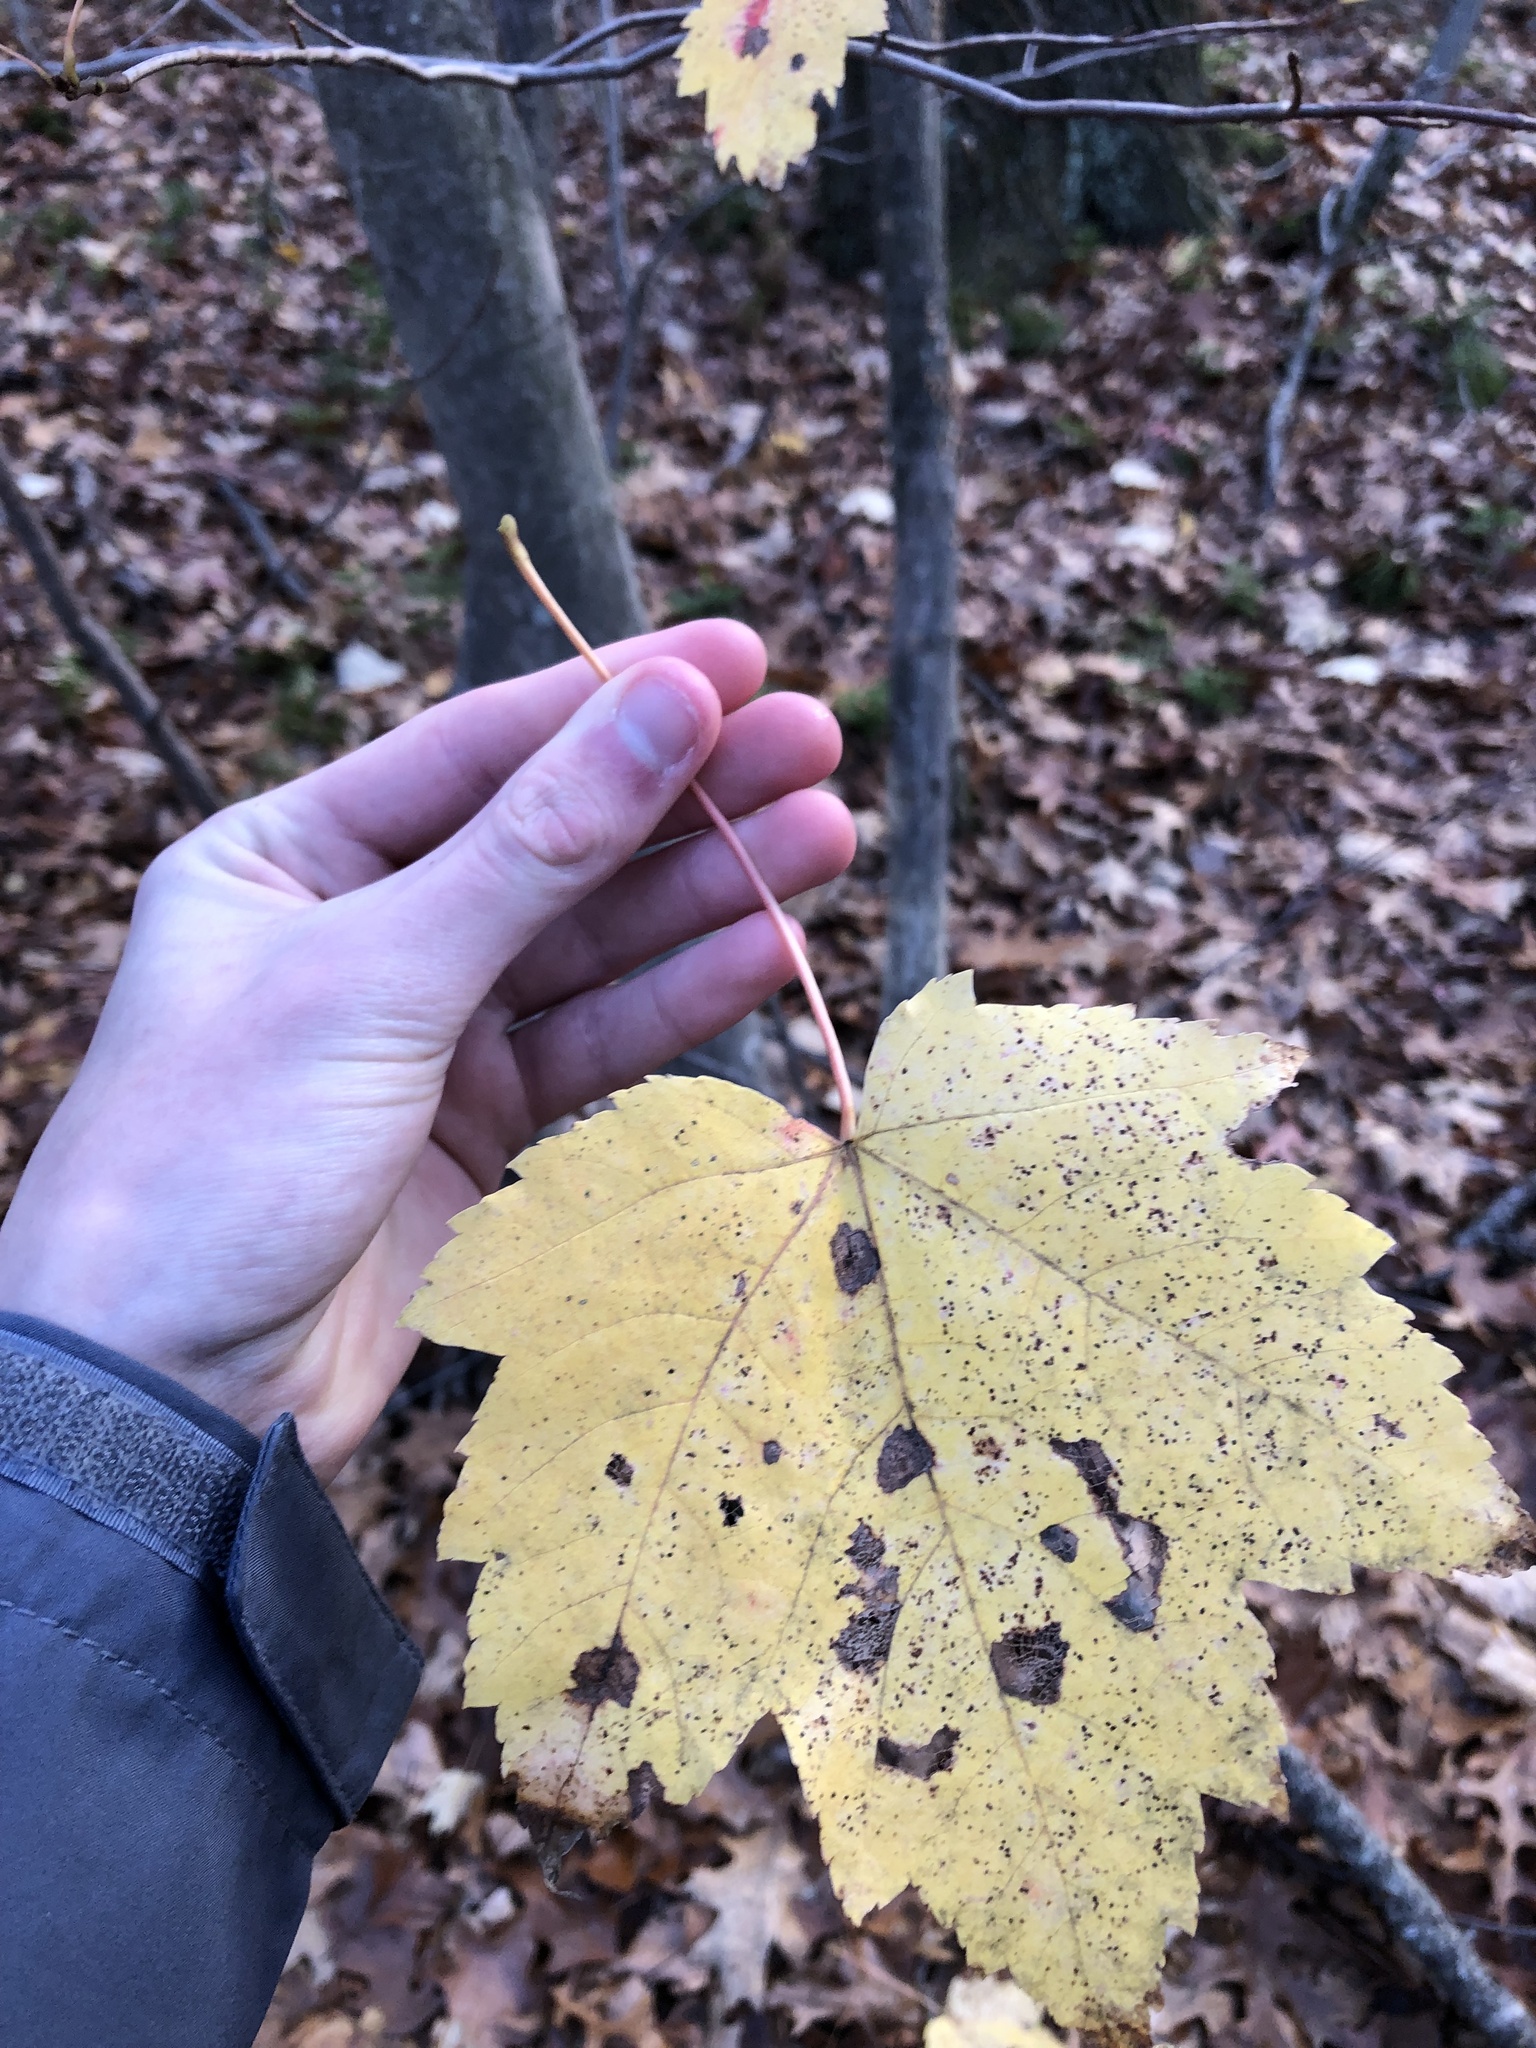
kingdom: Plantae
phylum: Tracheophyta
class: Magnoliopsida
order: Sapindales
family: Sapindaceae
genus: Acer
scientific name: Acer rubrum
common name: Red maple
